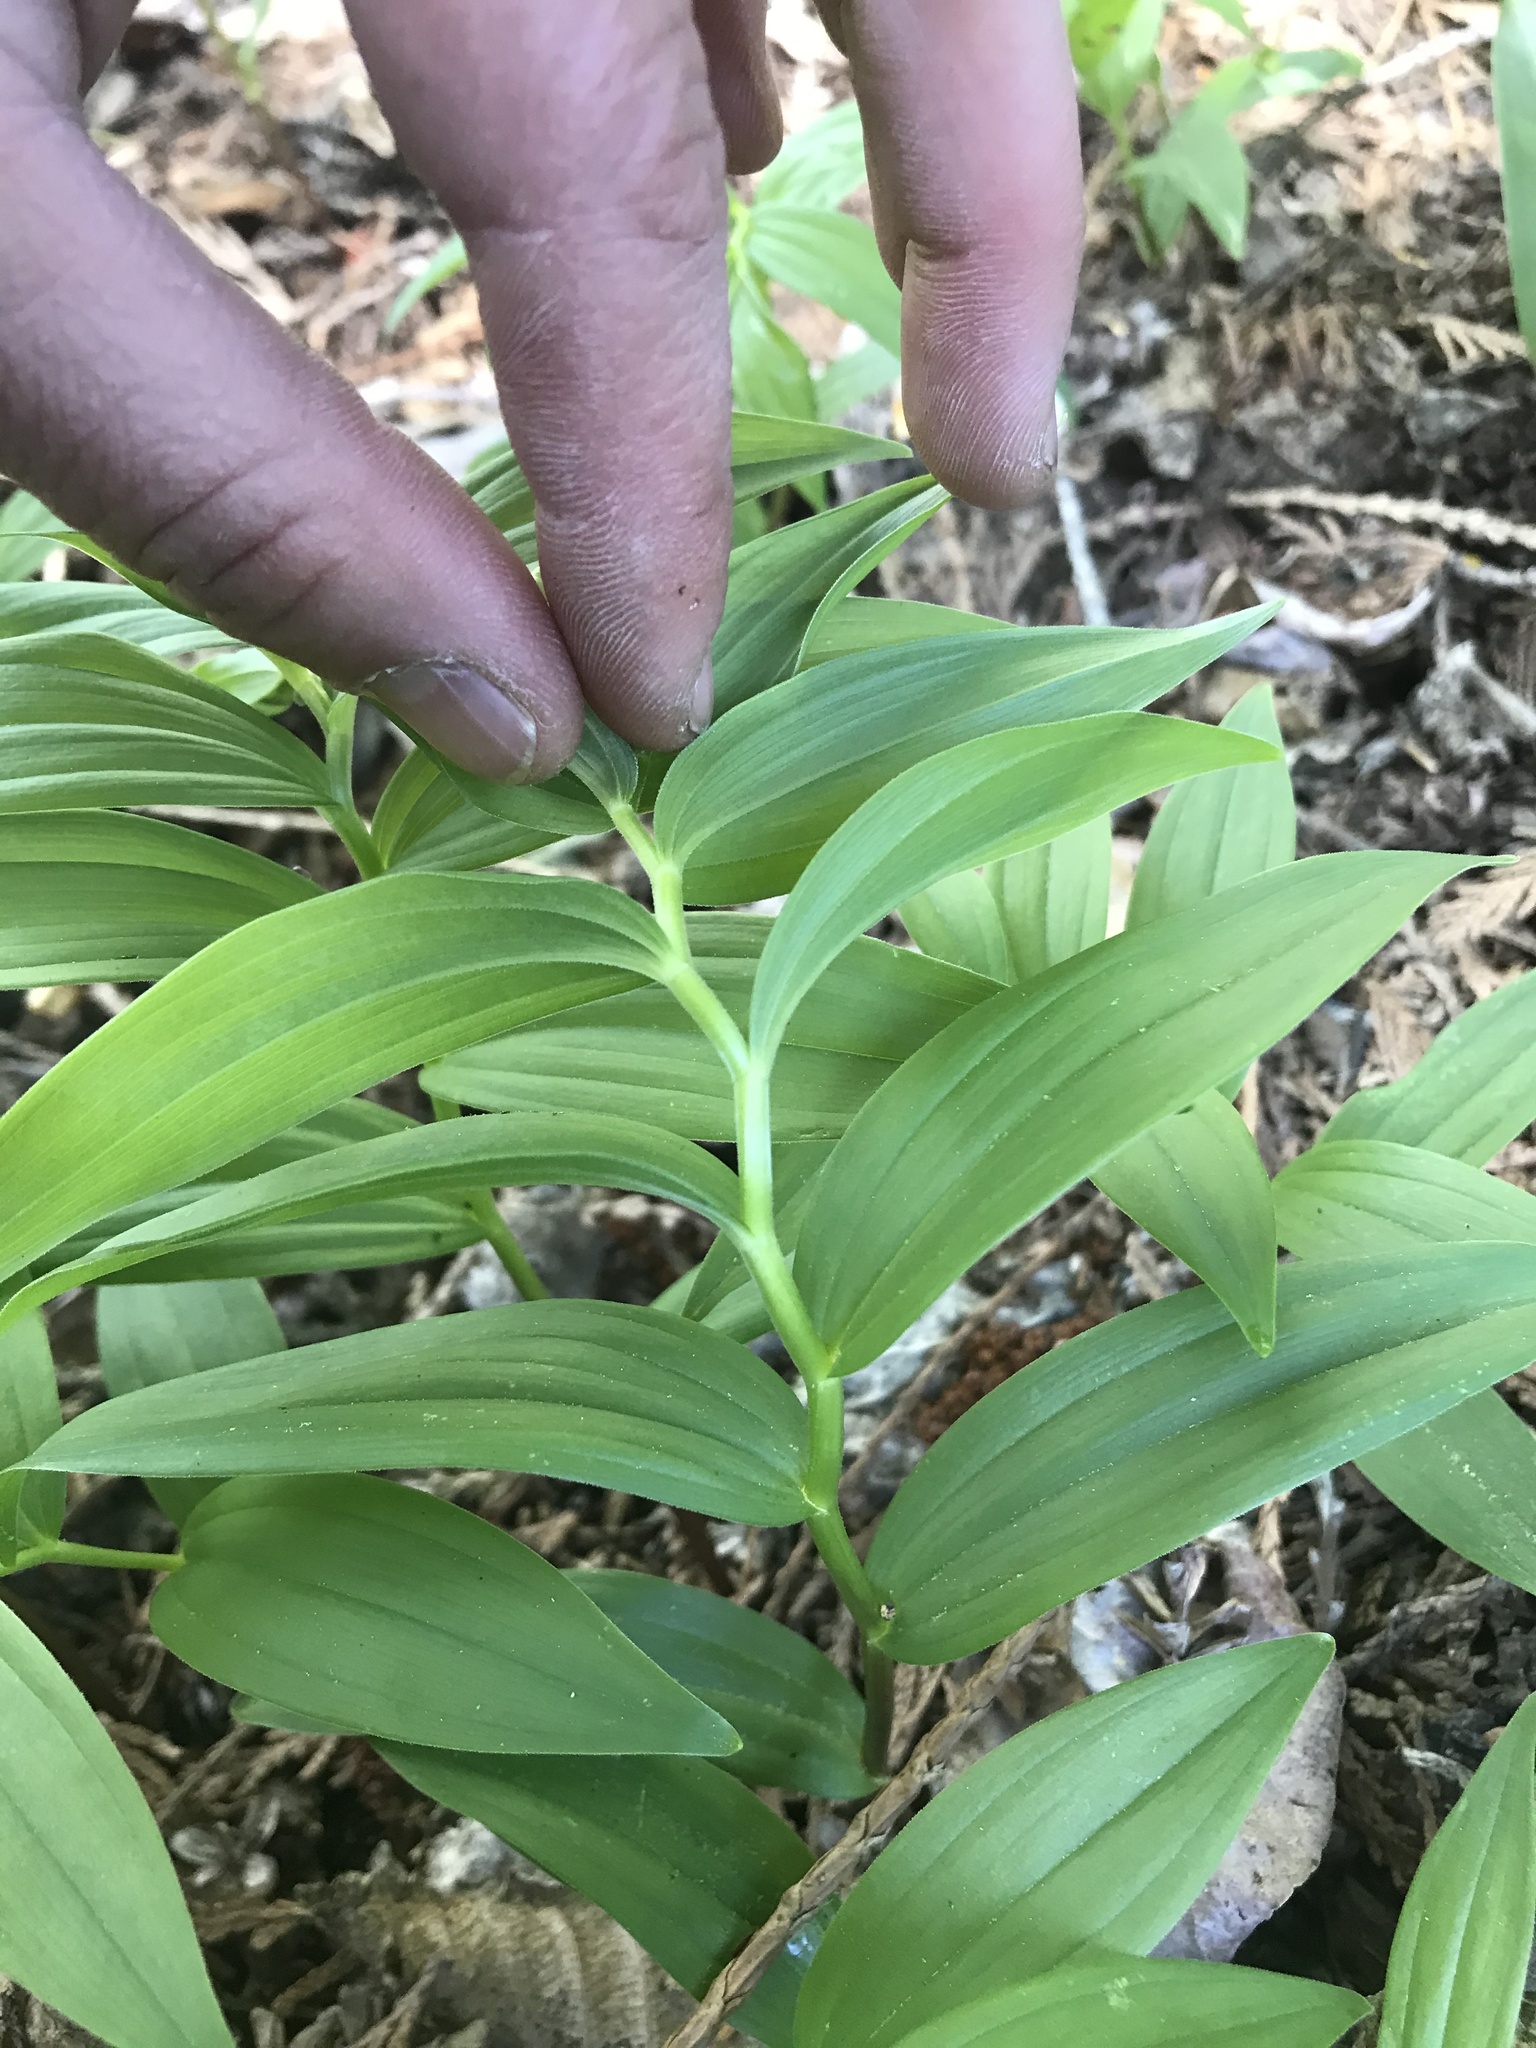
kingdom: Plantae
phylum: Tracheophyta
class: Liliopsida
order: Asparagales
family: Asparagaceae
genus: Maianthemum
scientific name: Maianthemum stellatum
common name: Little false solomon's seal
